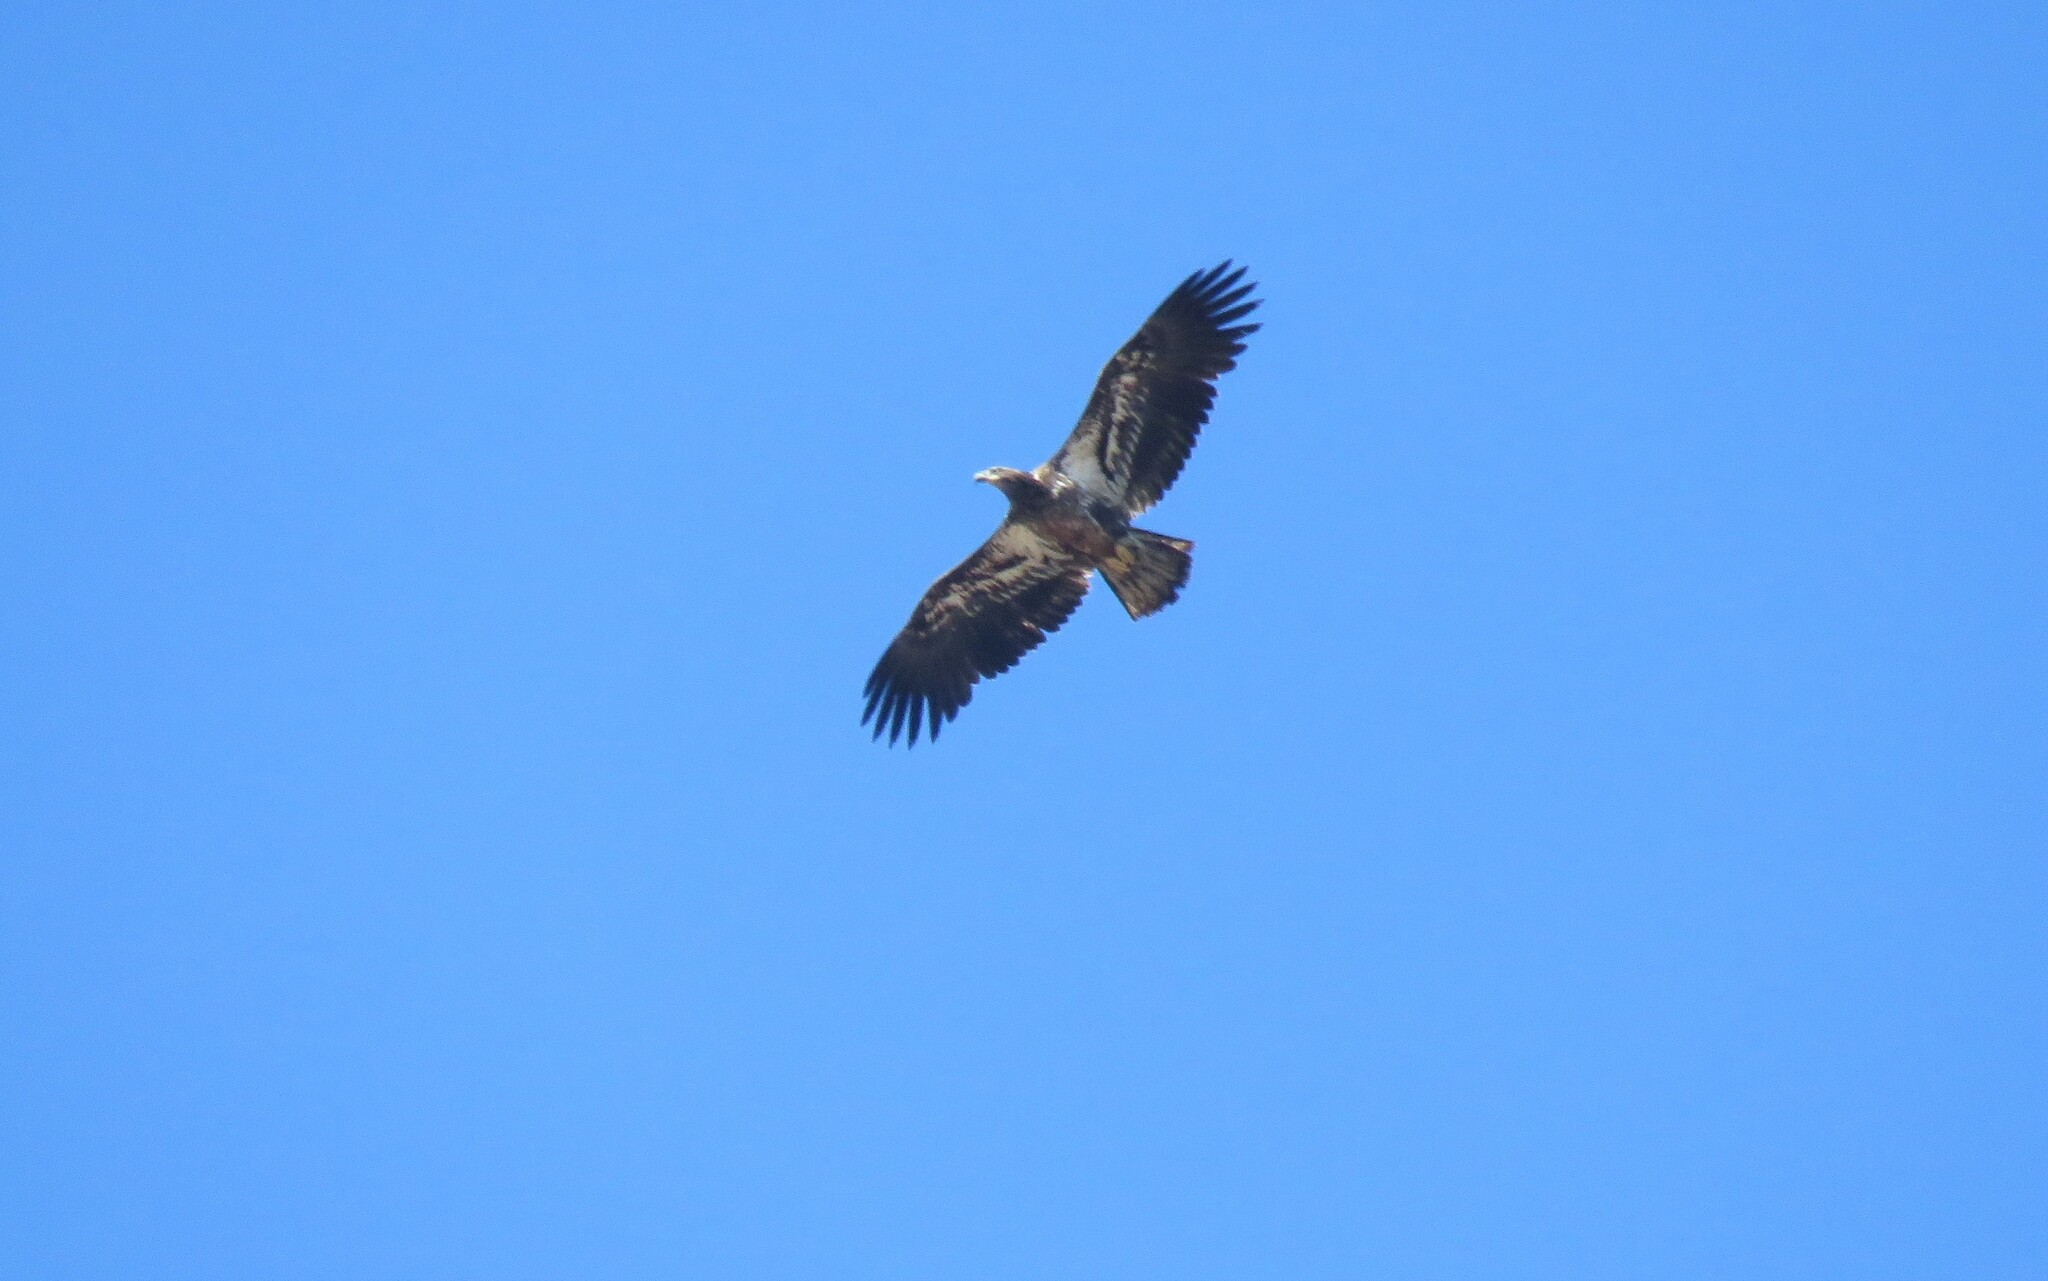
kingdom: Animalia
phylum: Chordata
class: Aves
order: Accipitriformes
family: Accipitridae
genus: Haliaeetus
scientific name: Haliaeetus leucocephalus
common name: Bald eagle
